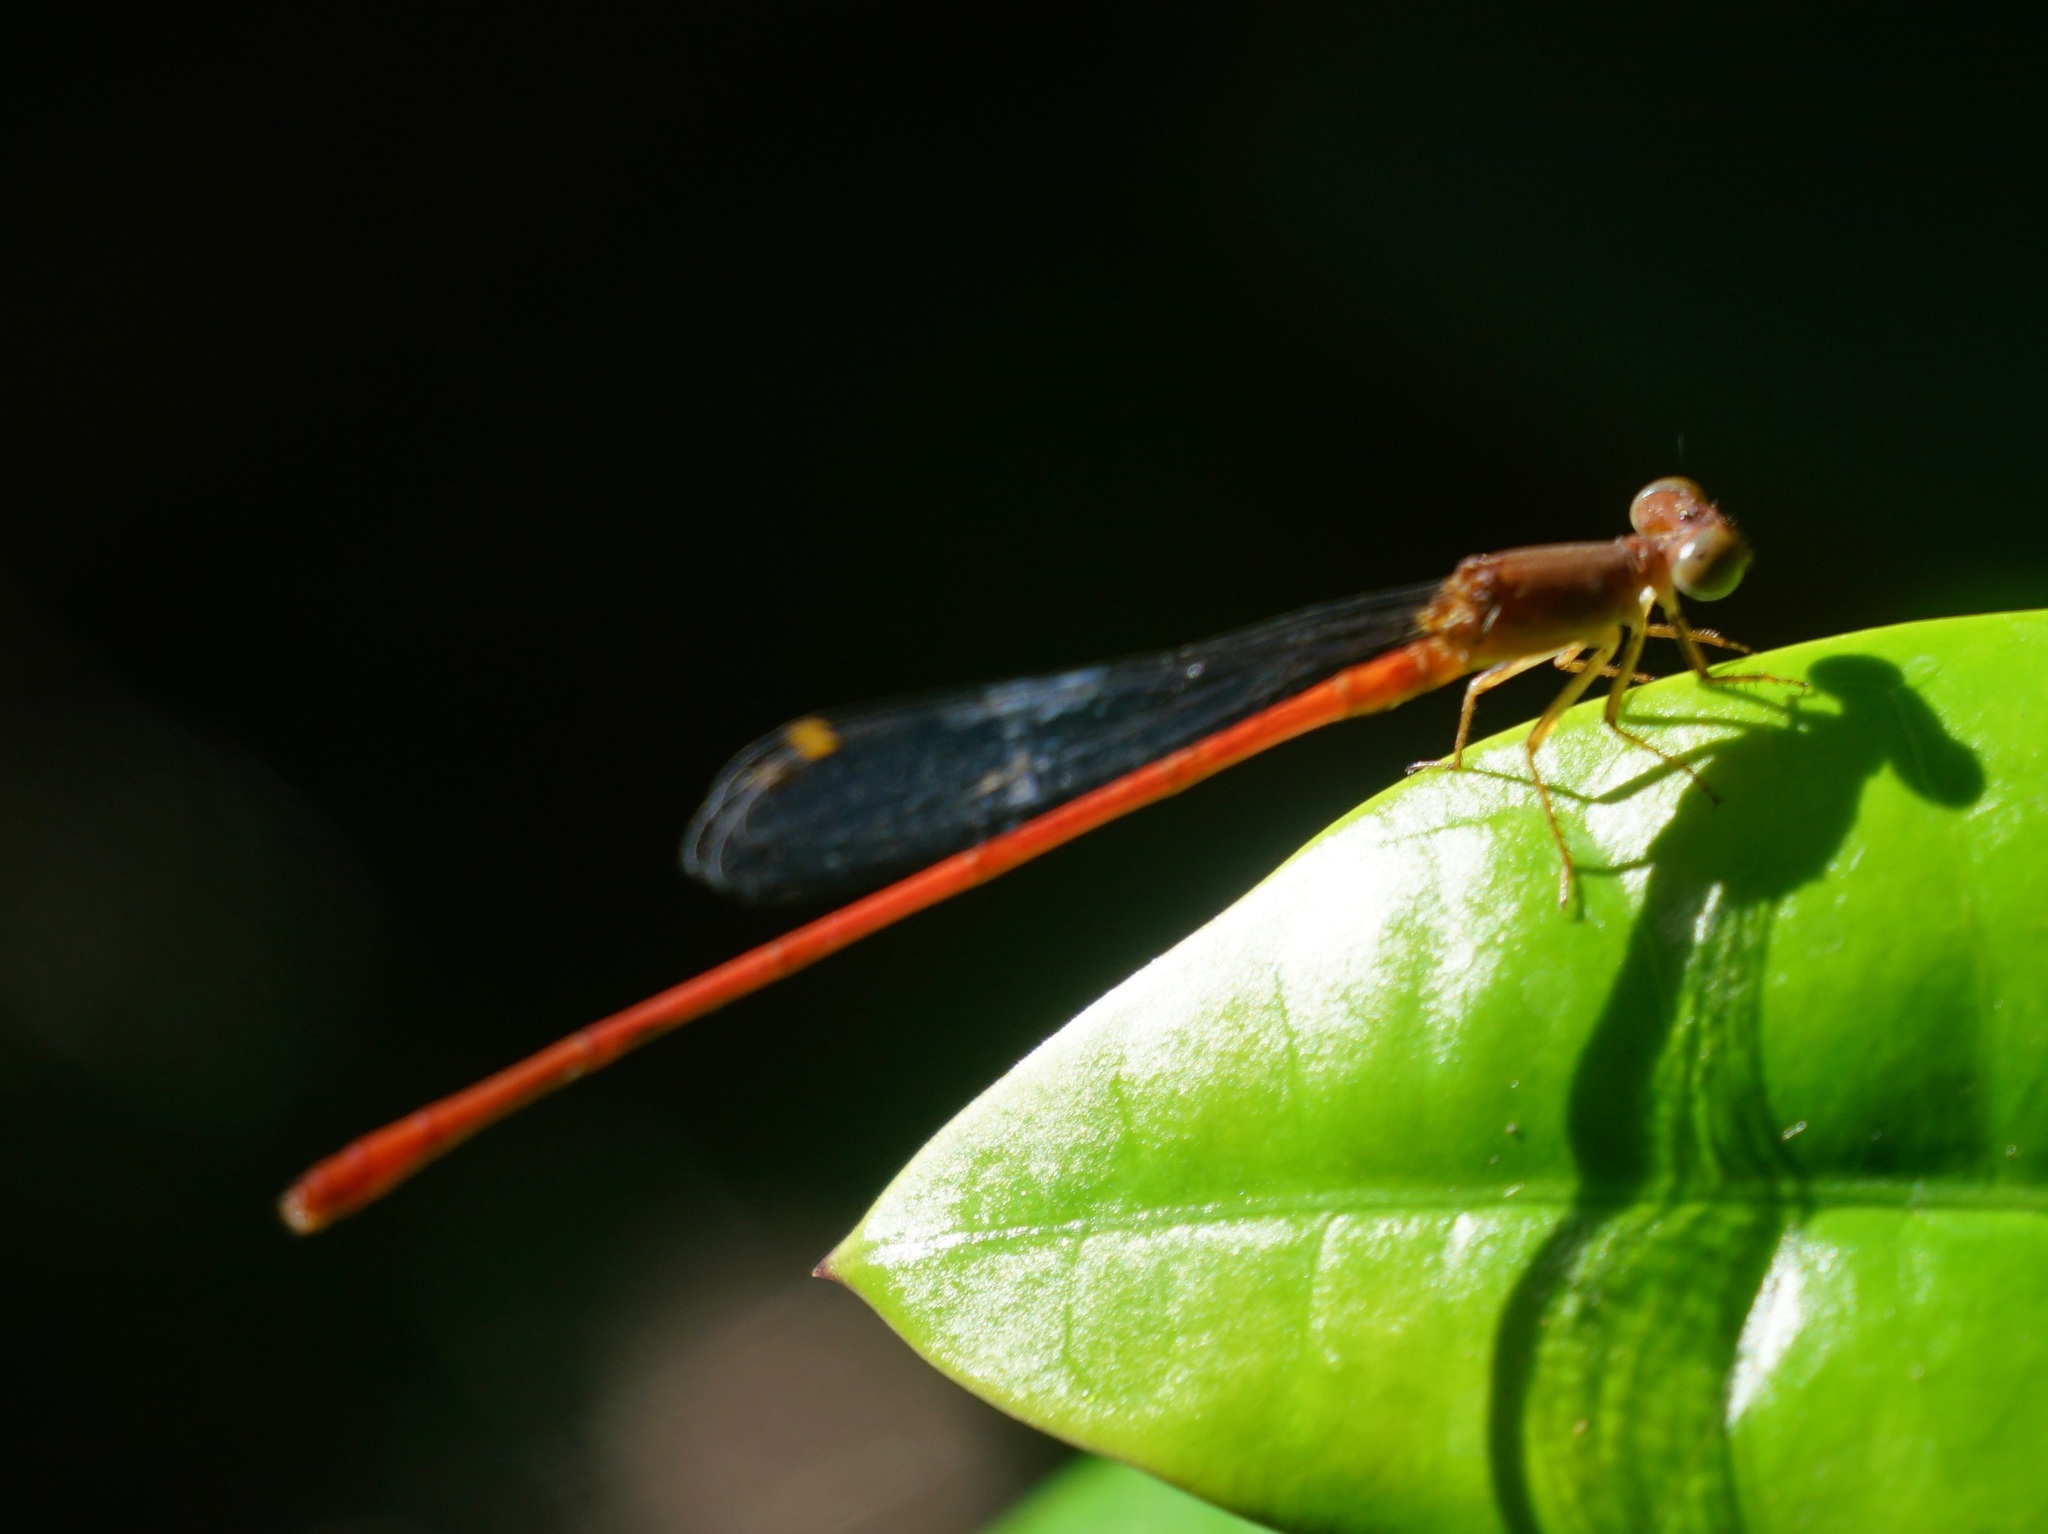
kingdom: Animalia
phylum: Arthropoda
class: Insecta
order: Odonata
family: Coenagrionidae
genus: Ceriagrion
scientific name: Ceriagrion aeruginosum
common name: Redtail
